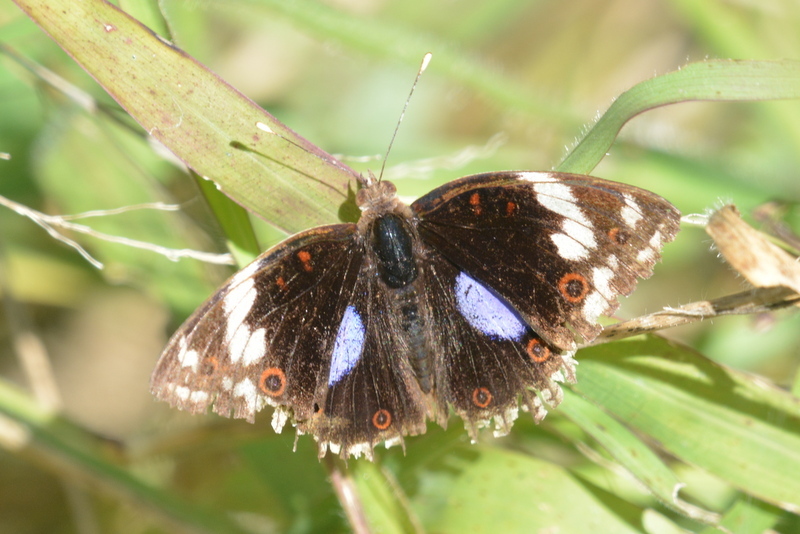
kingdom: Animalia
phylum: Arthropoda
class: Insecta
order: Lepidoptera
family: Nymphalidae
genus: Junonia
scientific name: Junonia oenone
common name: Dark blue pansy
